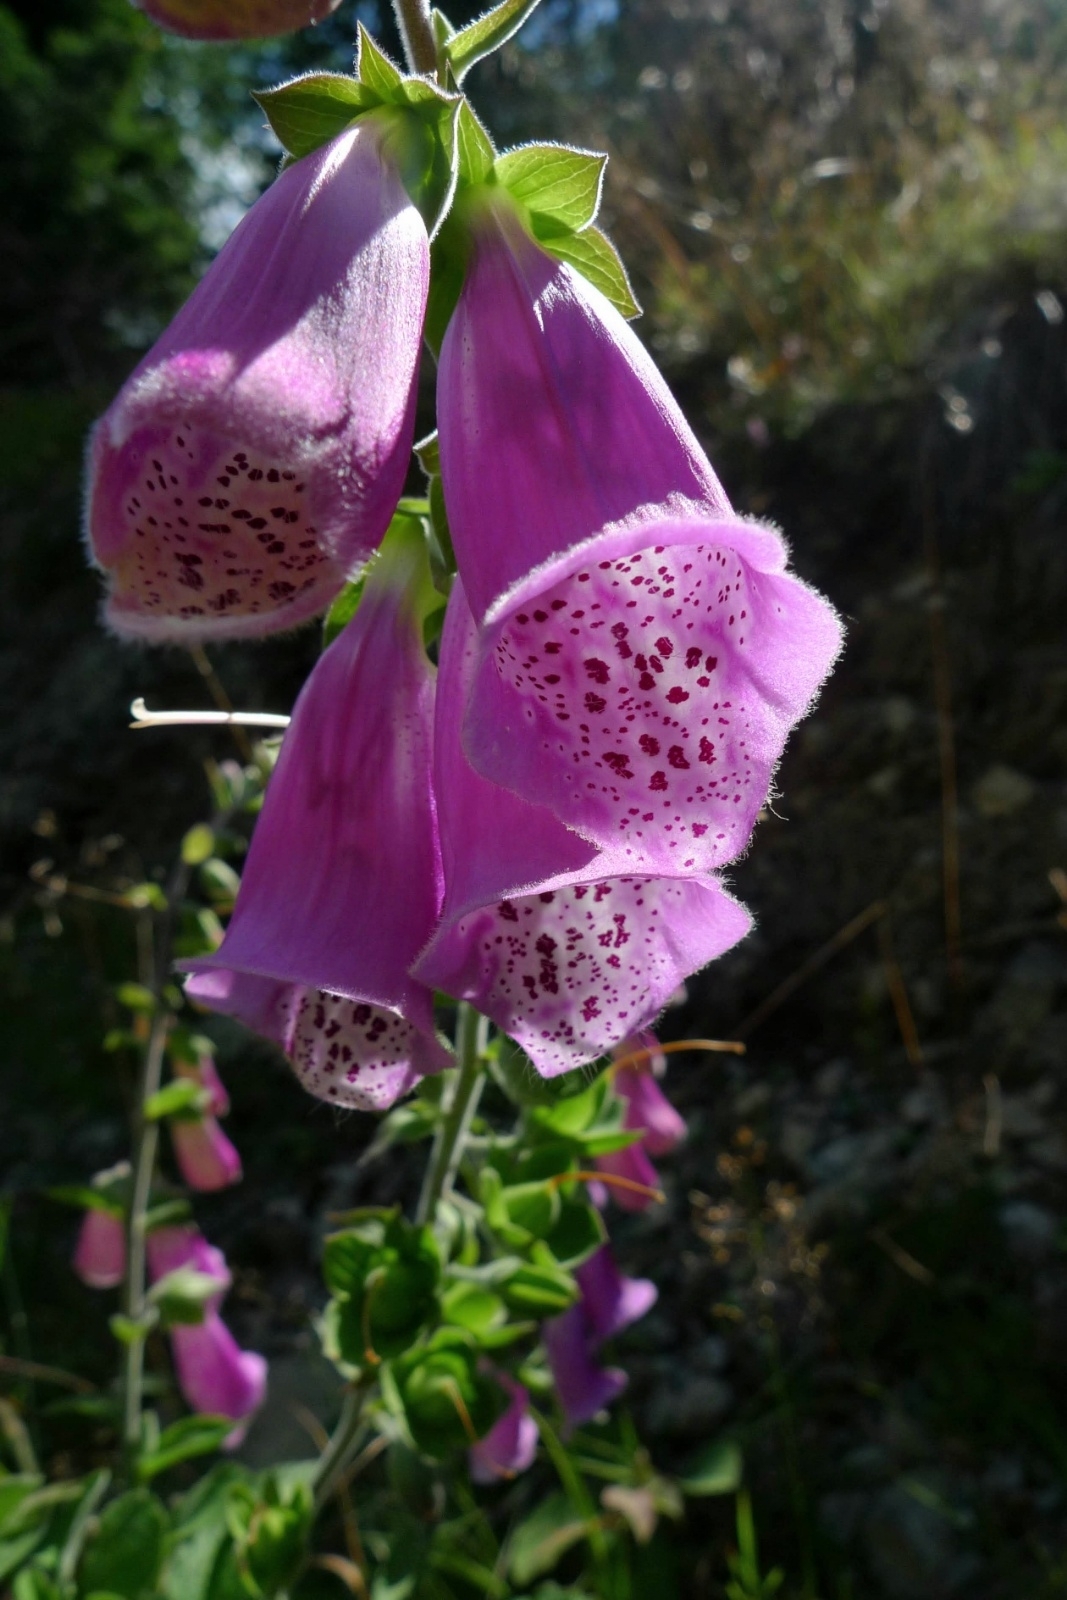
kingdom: Plantae
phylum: Tracheophyta
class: Magnoliopsida
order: Lamiales
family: Plantaginaceae
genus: Digitalis
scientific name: Digitalis purpurea
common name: Foxglove
